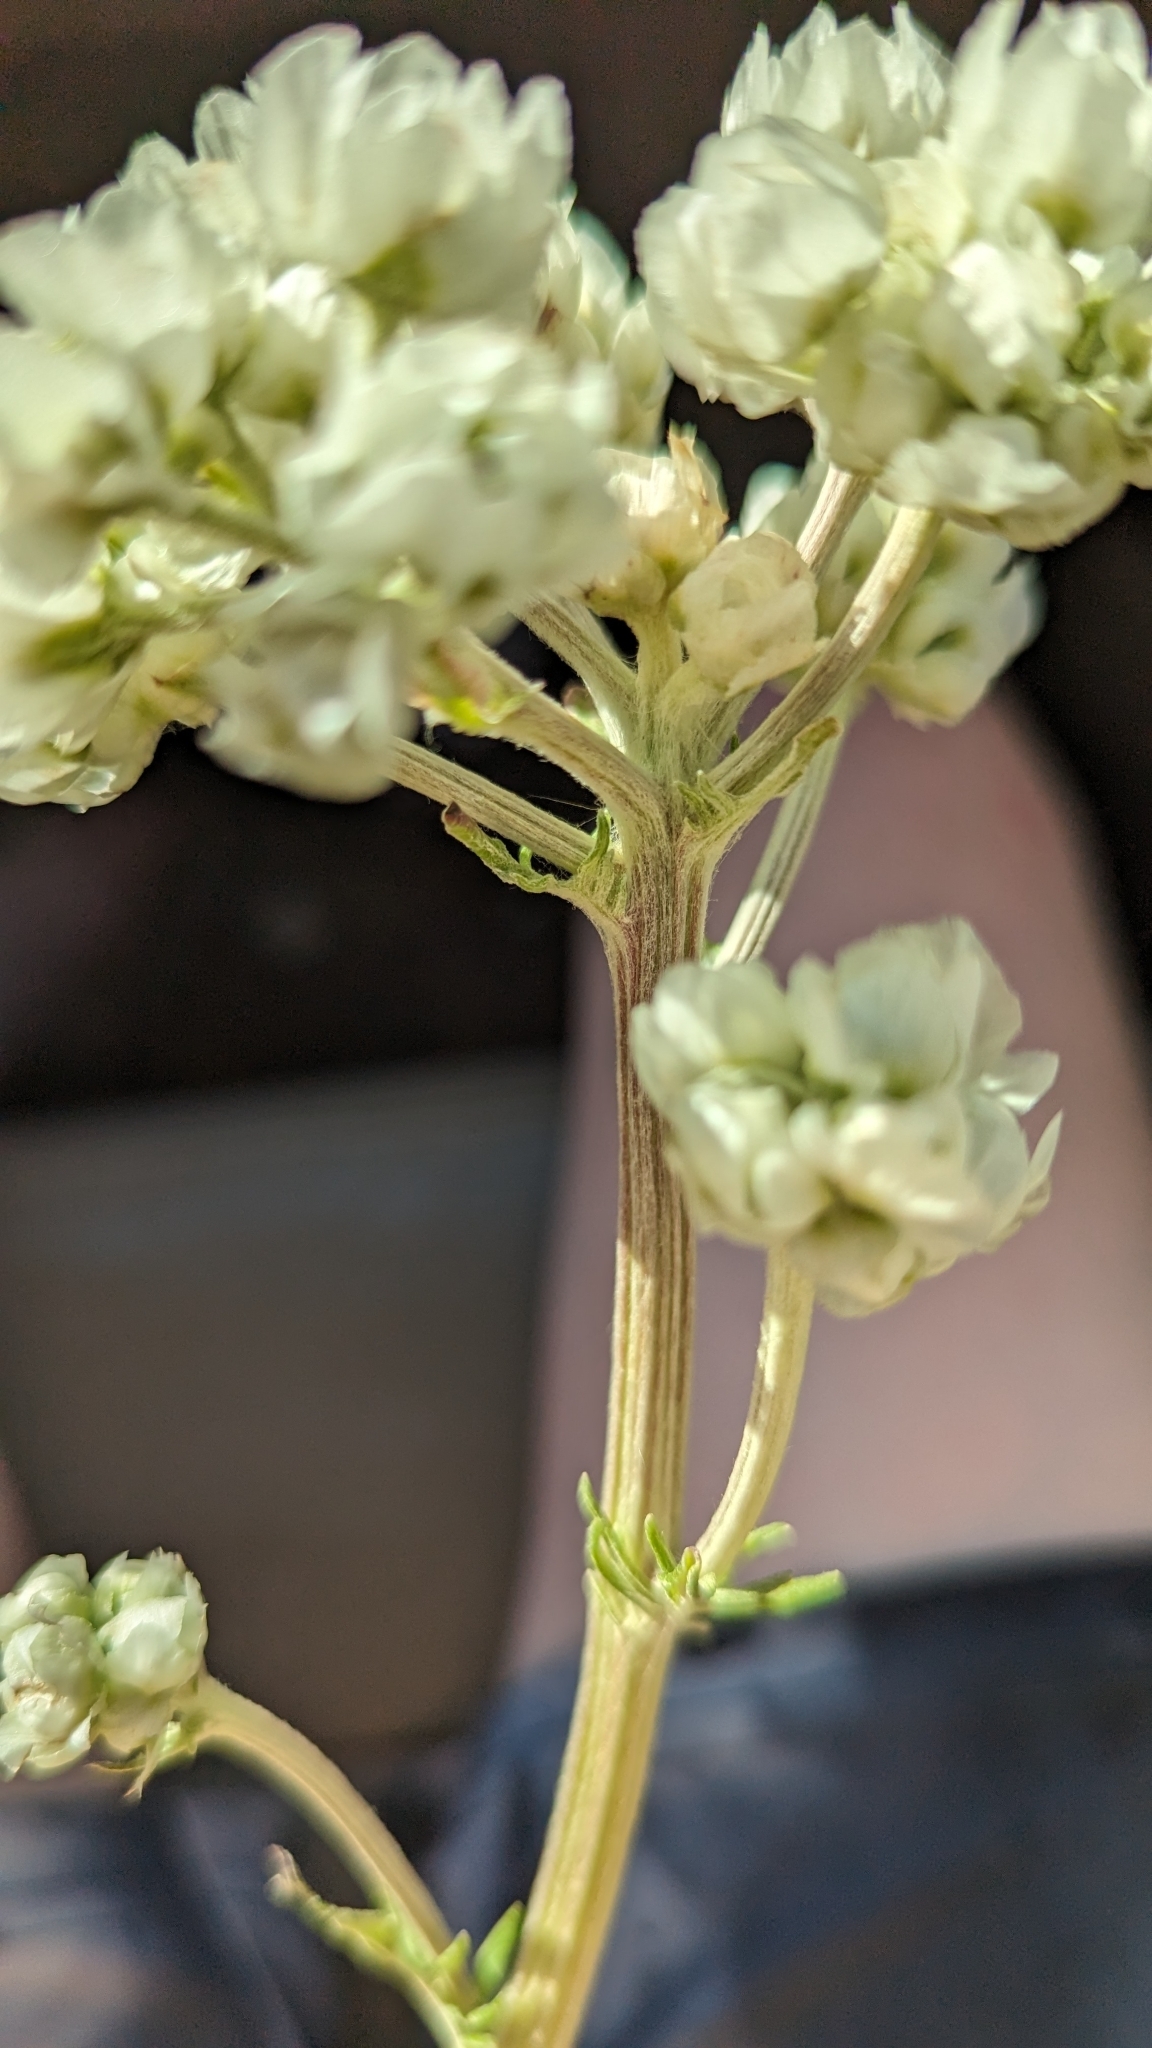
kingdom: Plantae
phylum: Tracheophyta
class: Magnoliopsida
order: Asterales
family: Asteraceae
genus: Hymenopappus
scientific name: Hymenopappus artemisiifolius
